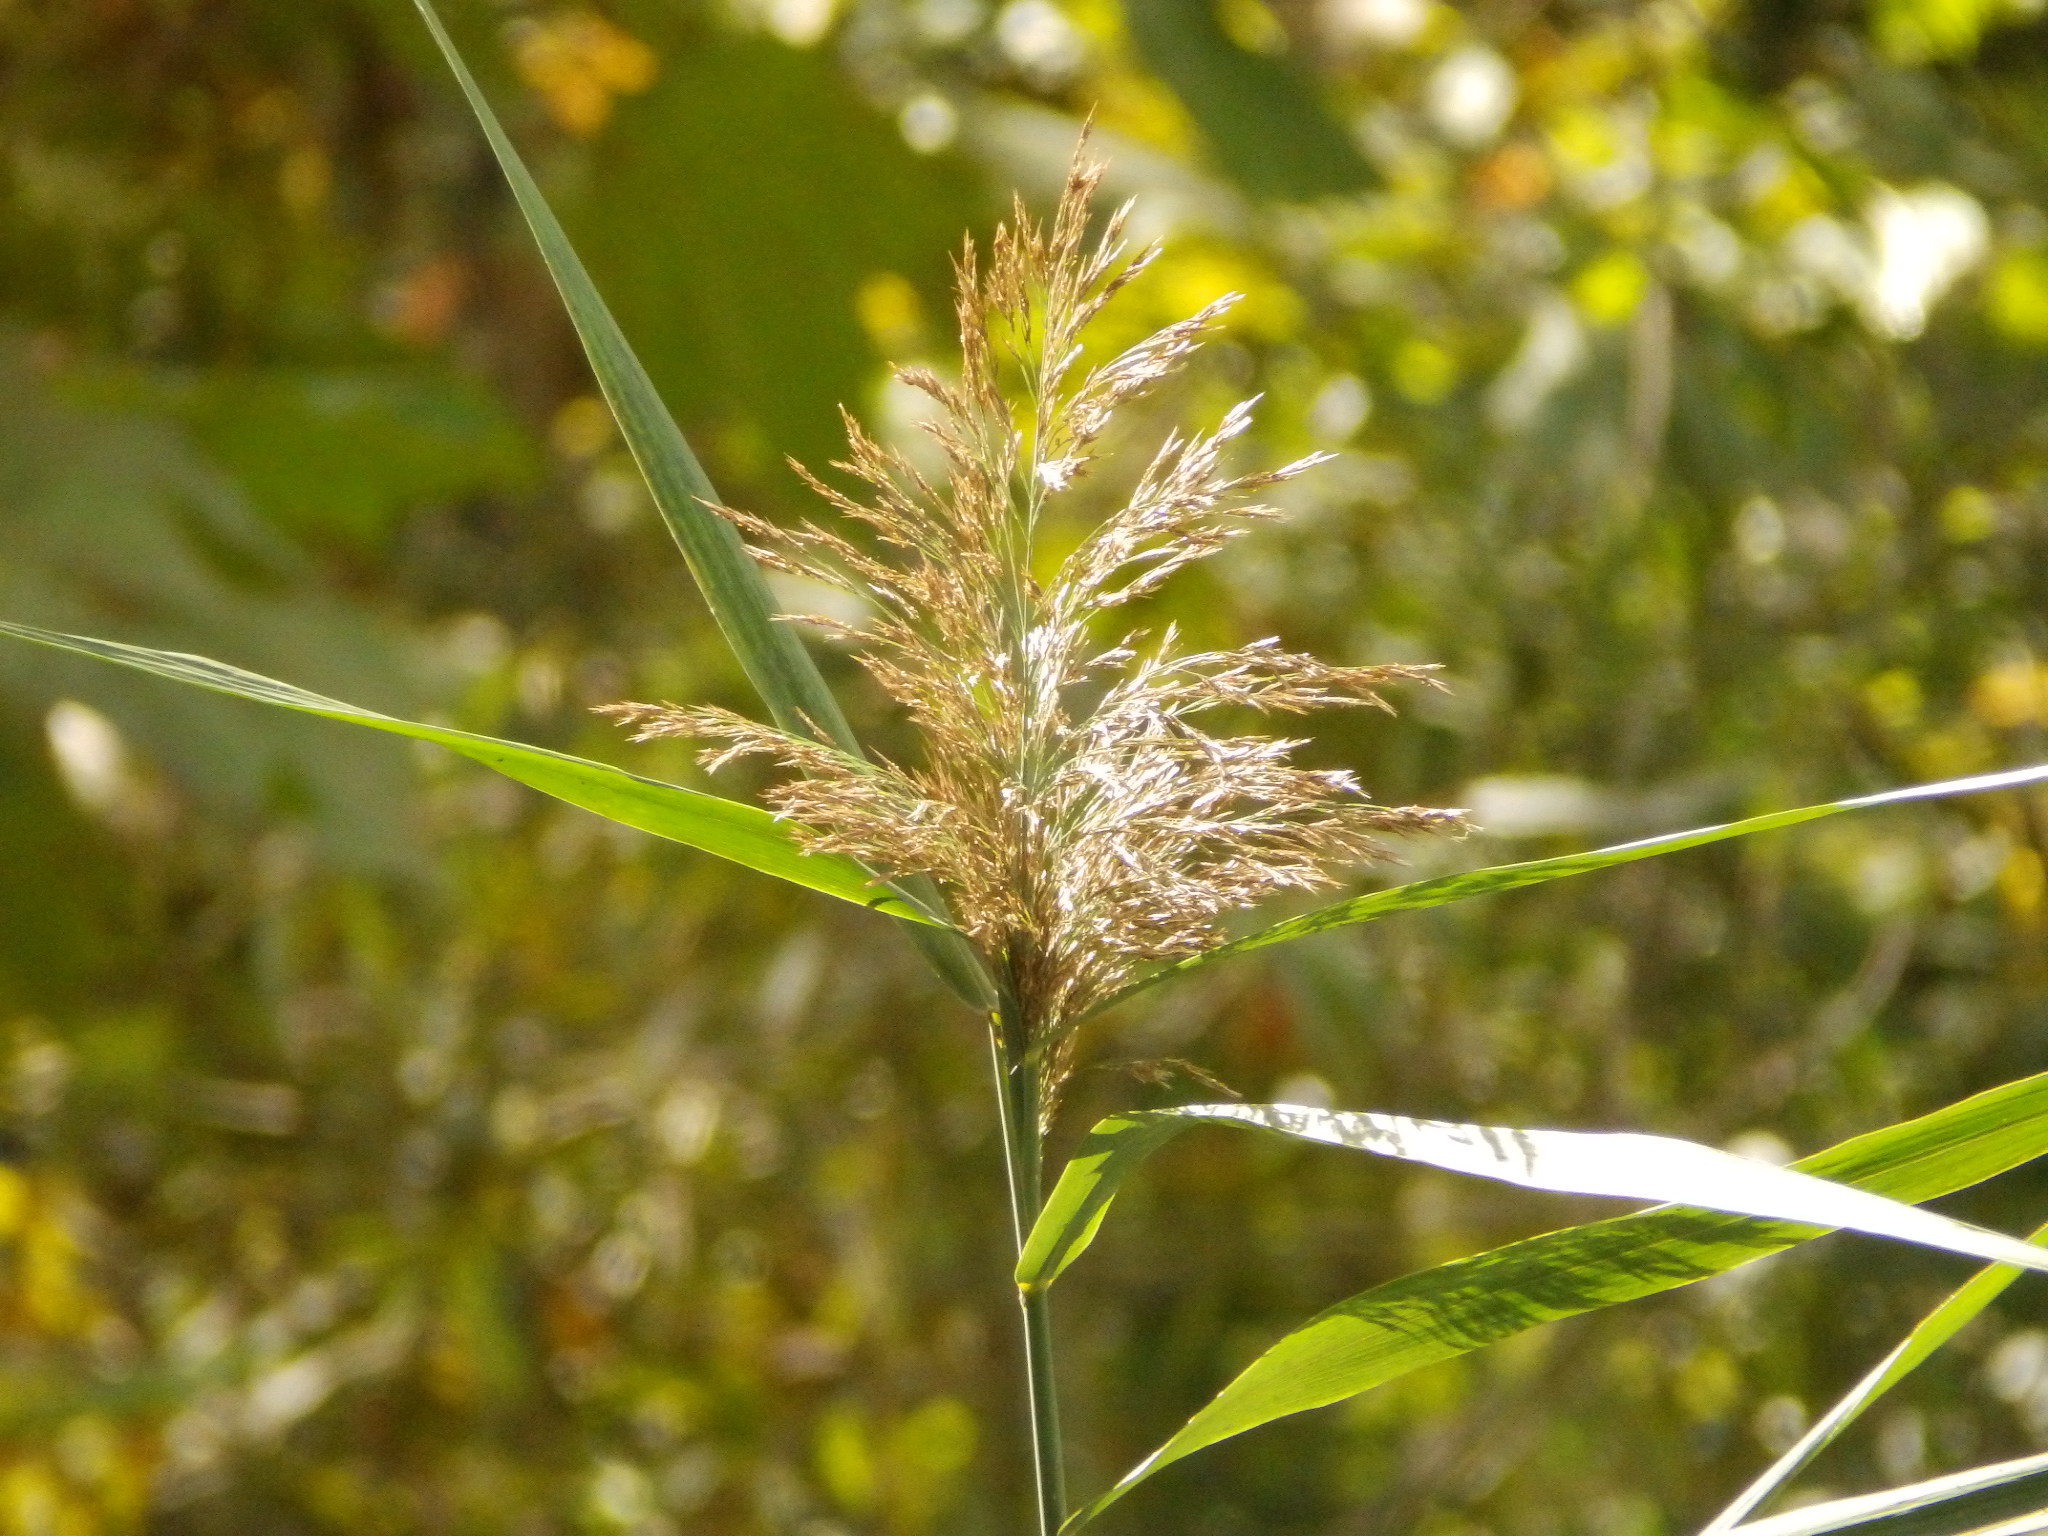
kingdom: Plantae
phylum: Tracheophyta
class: Liliopsida
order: Poales
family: Poaceae
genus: Phragmites
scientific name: Phragmites australis
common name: Common reed
